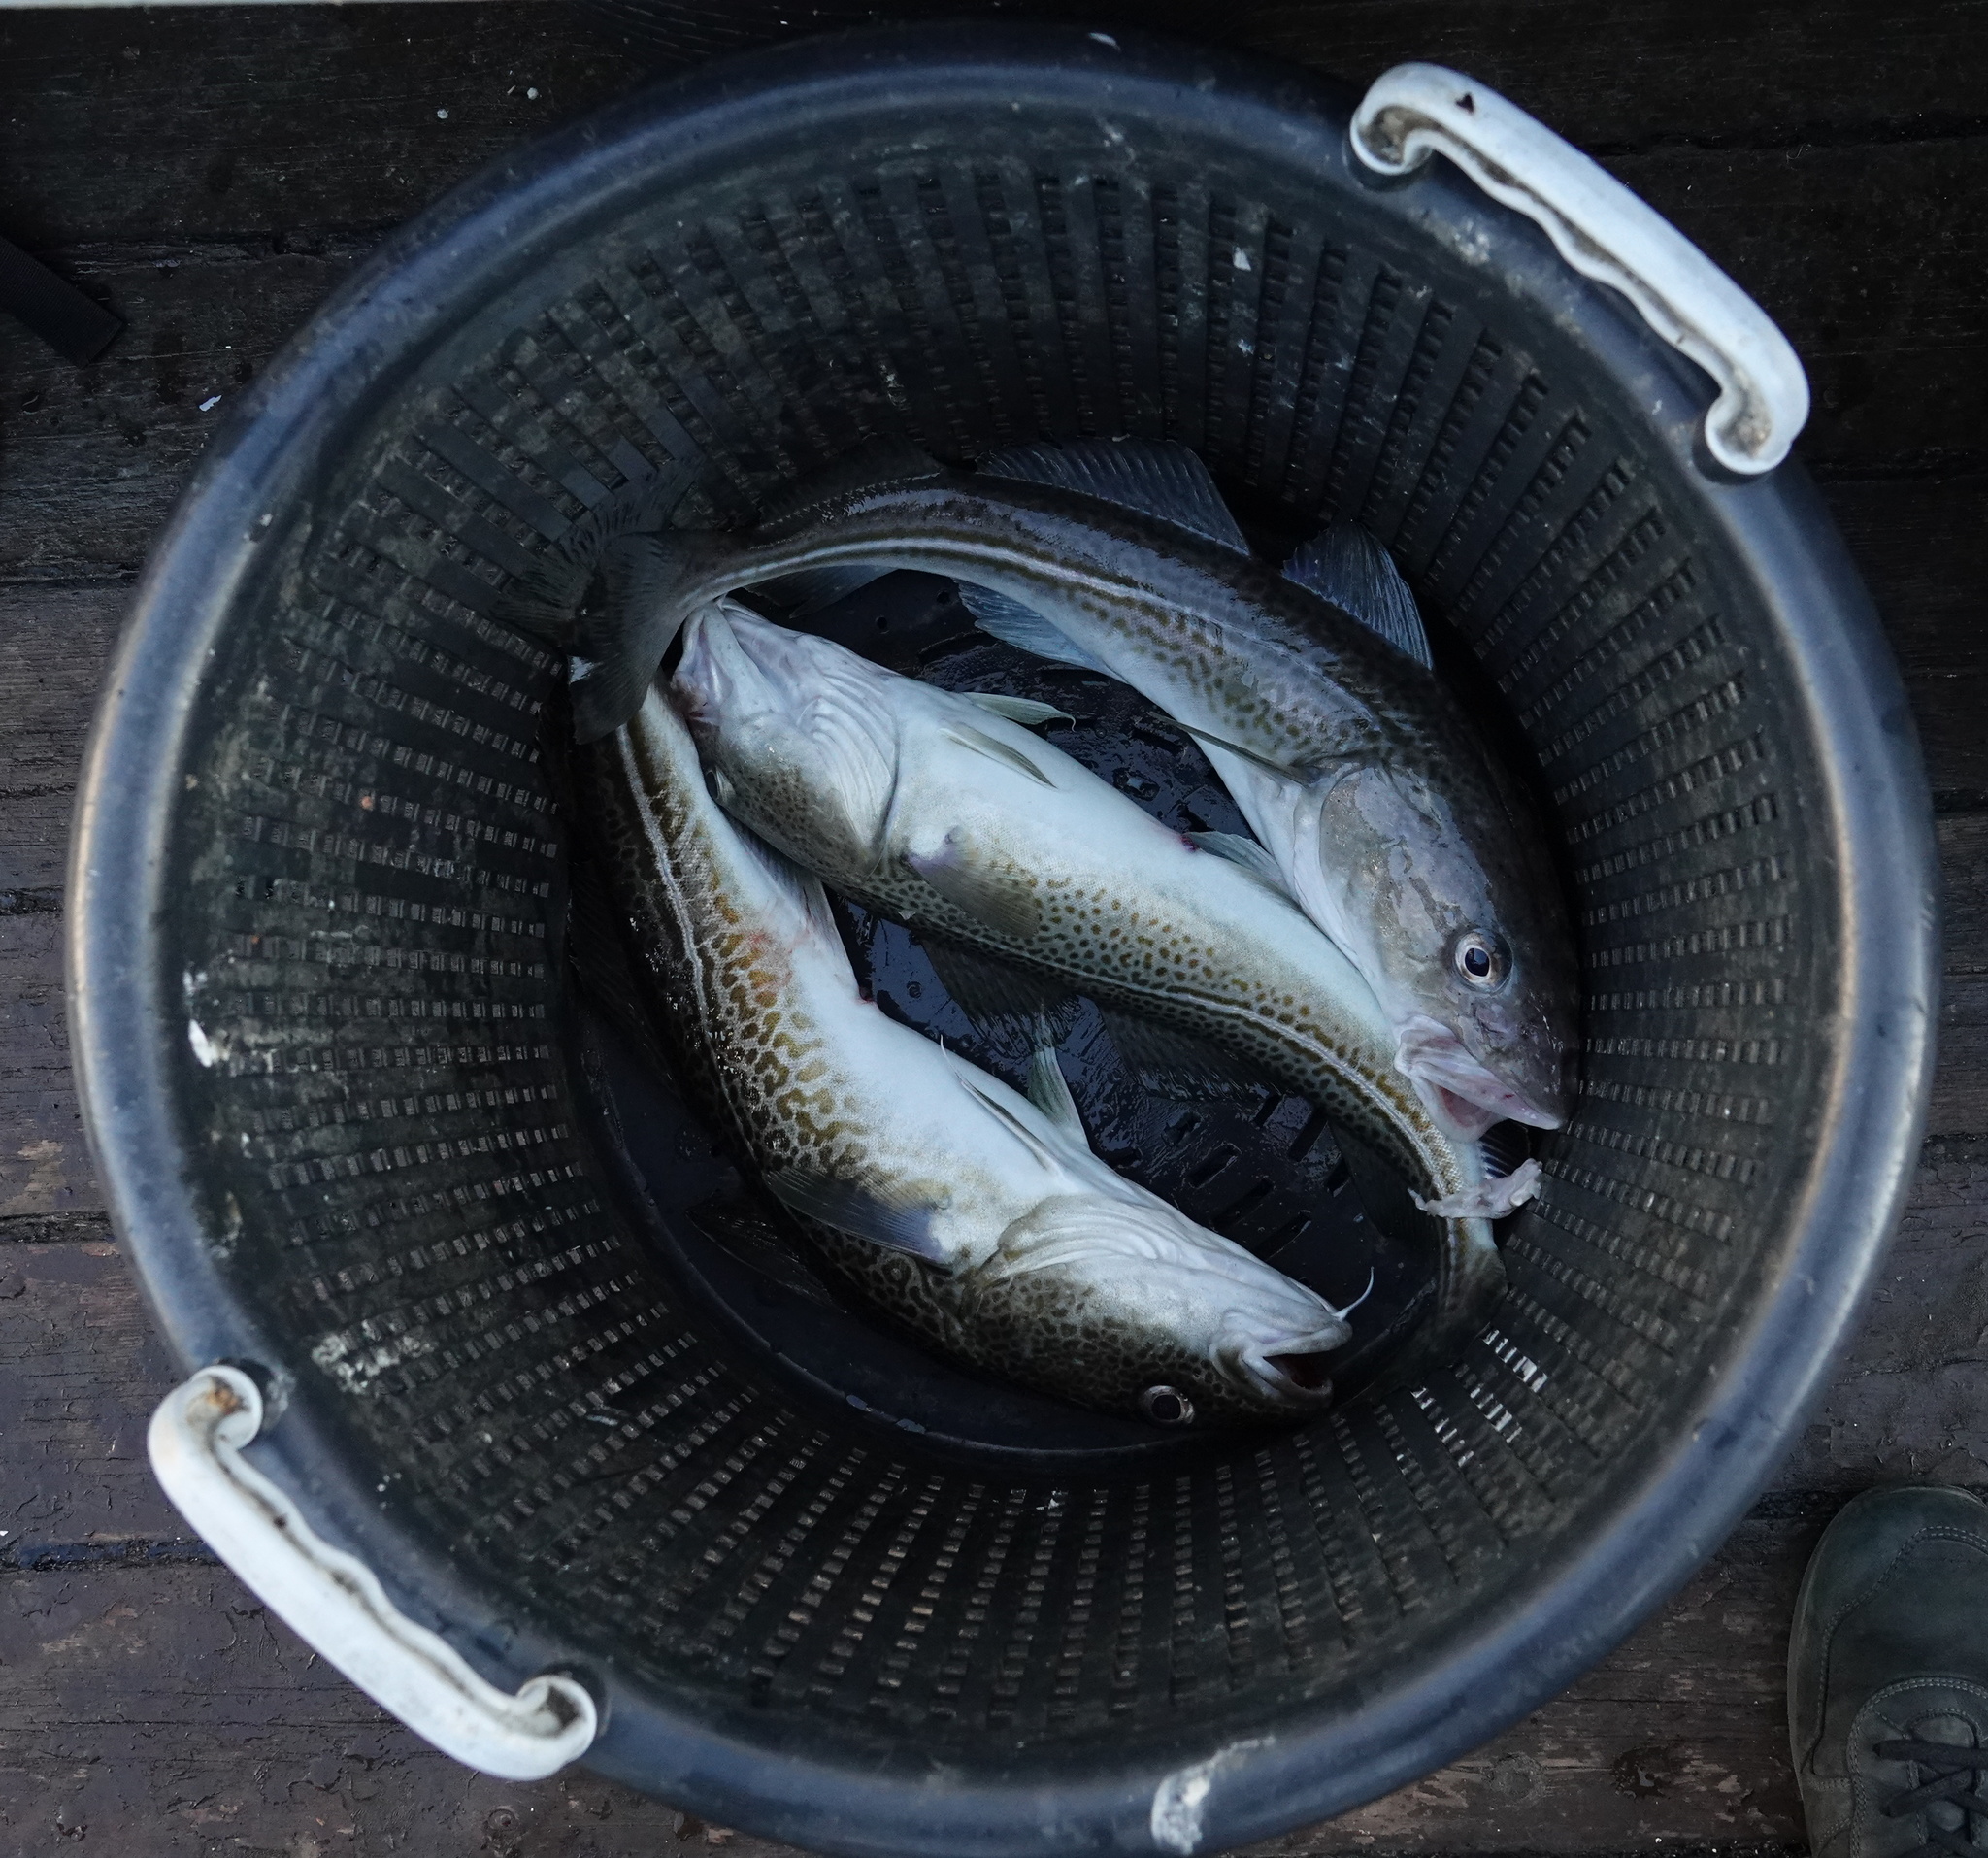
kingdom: Animalia
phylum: Chordata
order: Gadiformes
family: Gadidae
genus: Gadus
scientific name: Gadus morhua
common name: Atlantic cod
